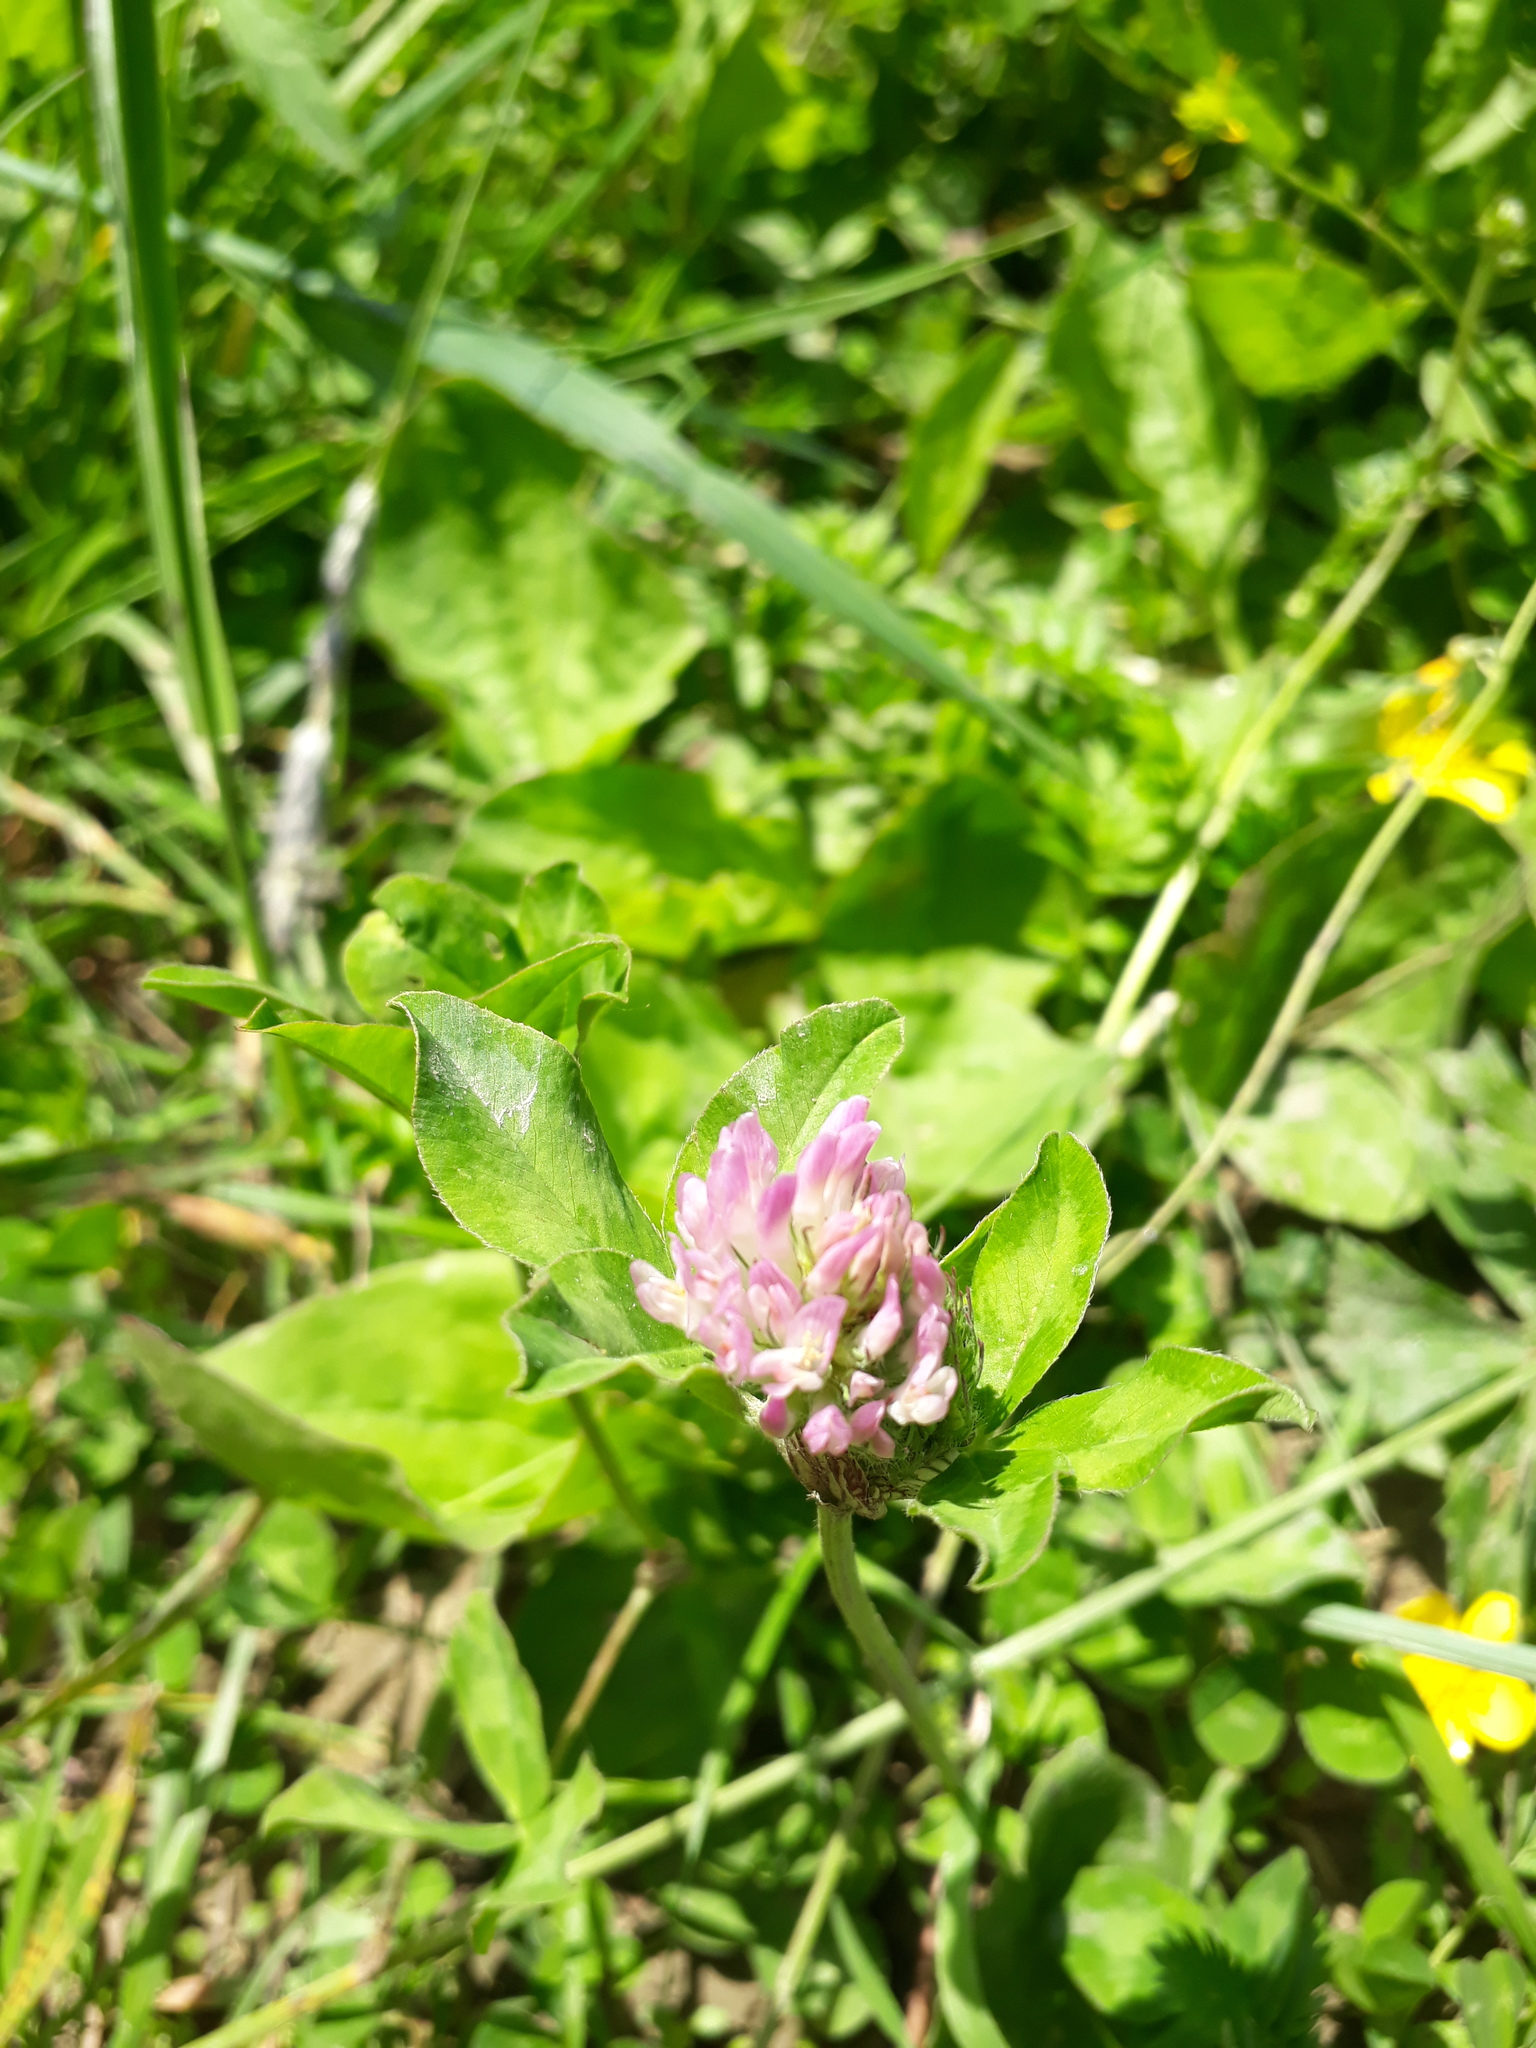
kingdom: Plantae
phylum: Tracheophyta
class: Magnoliopsida
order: Fabales
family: Fabaceae
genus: Trifolium
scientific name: Trifolium pratense
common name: Red clover
